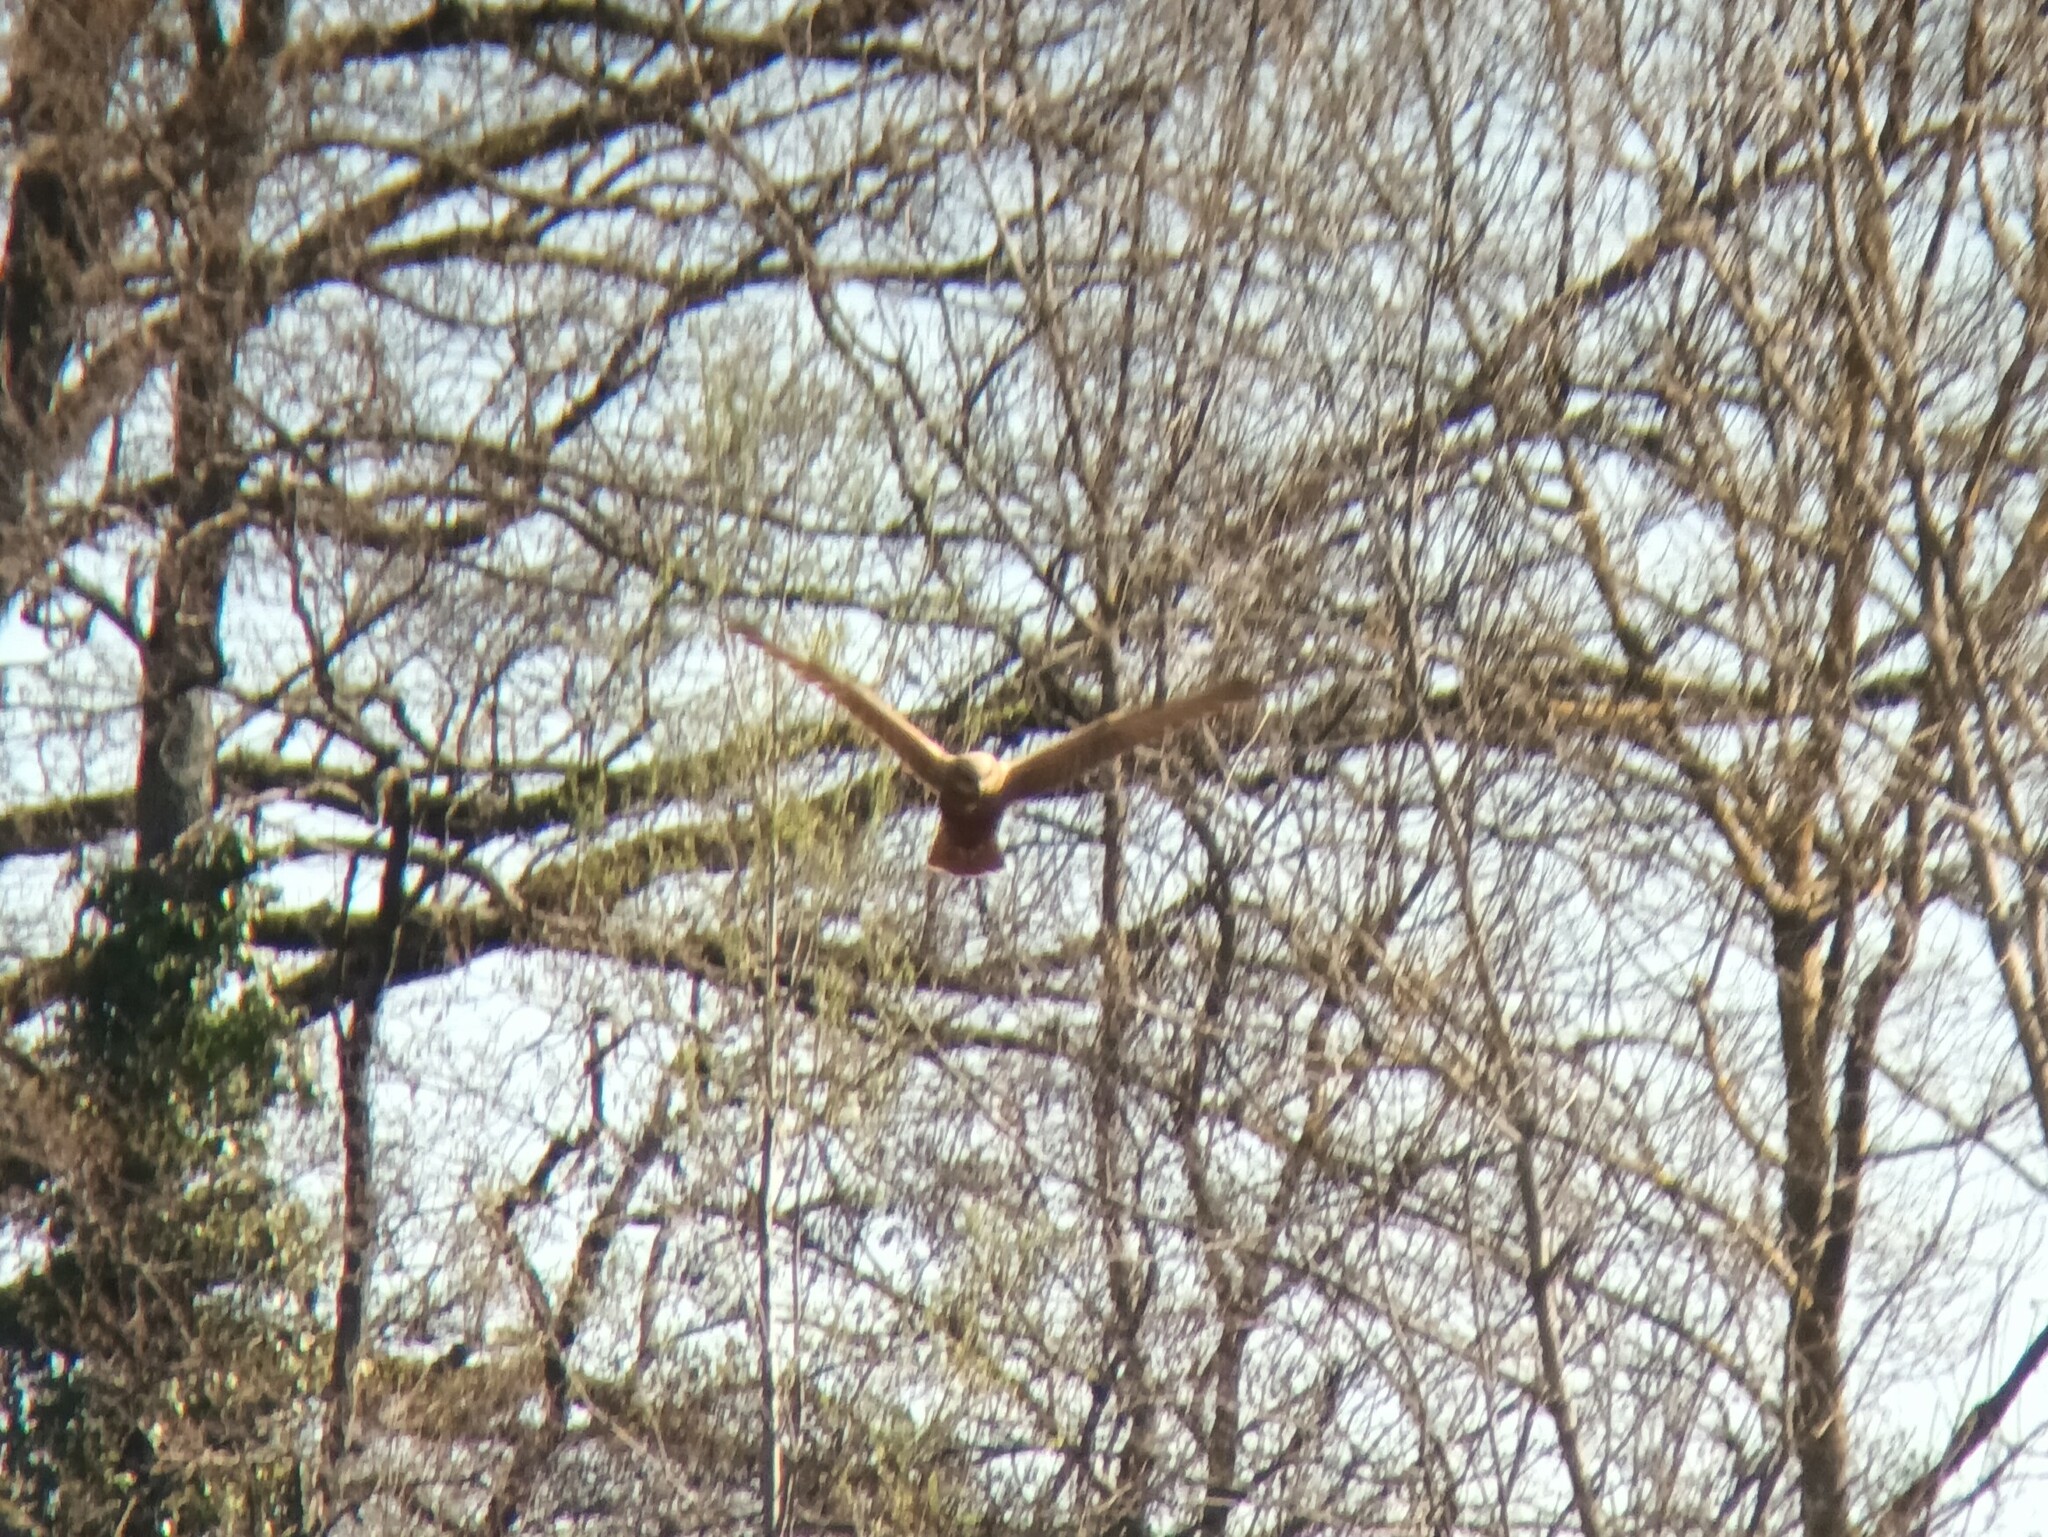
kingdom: Animalia
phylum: Chordata
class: Aves
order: Accipitriformes
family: Accipitridae
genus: Circus
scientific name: Circus aeruginosus
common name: Western marsh harrier
